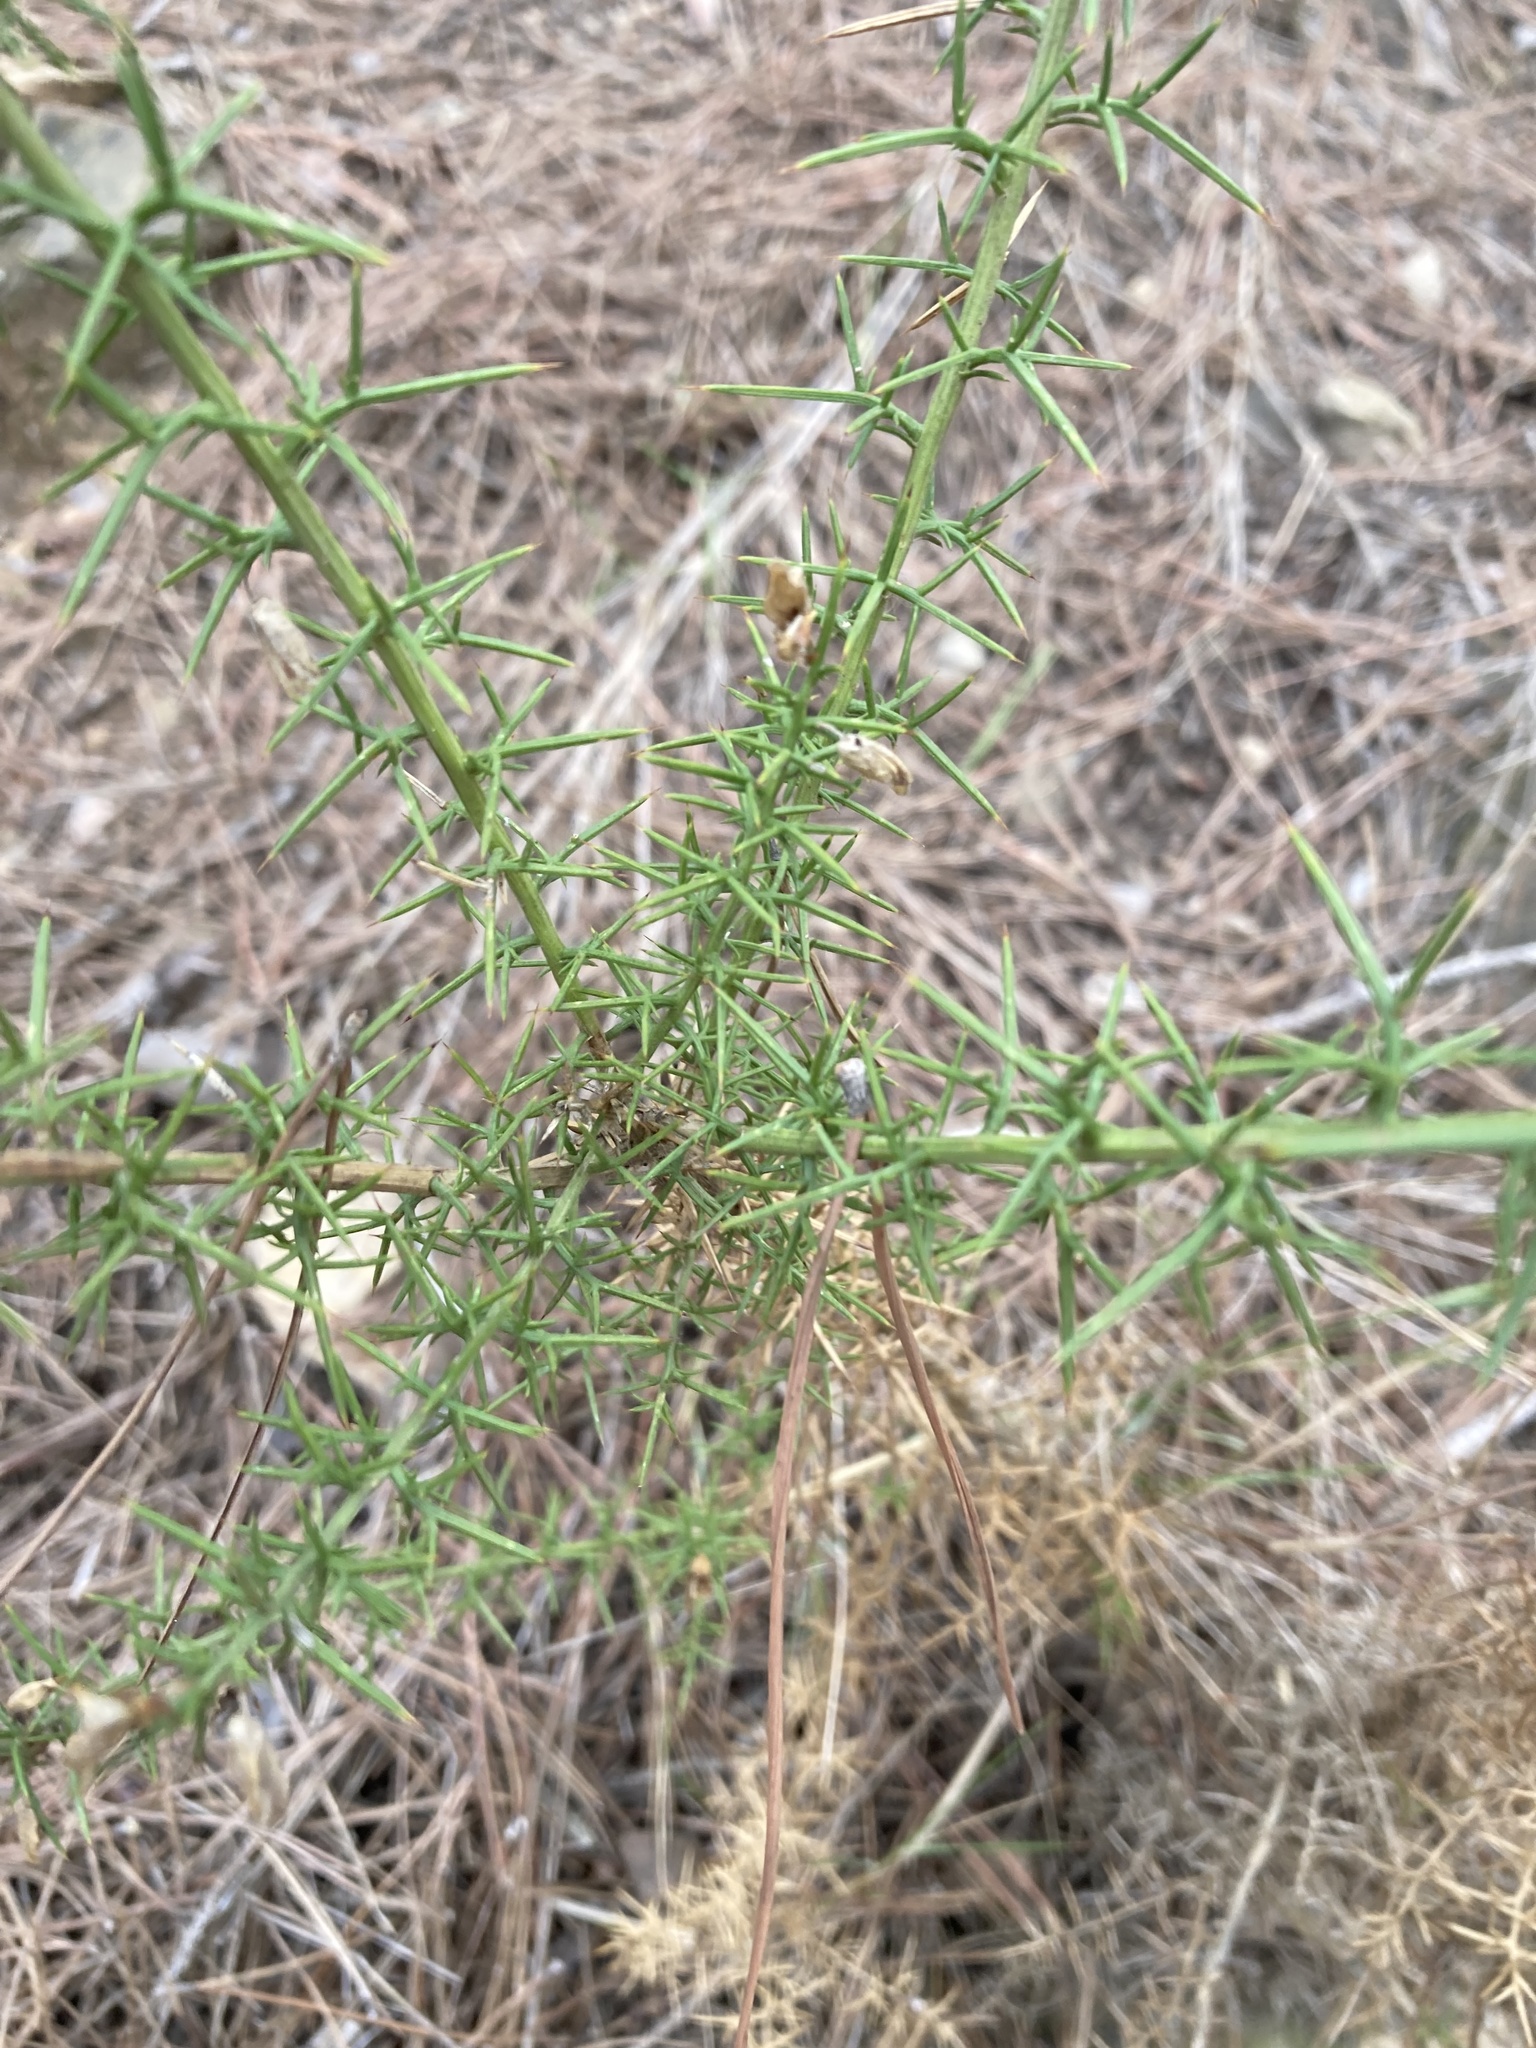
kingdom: Plantae
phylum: Tracheophyta
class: Magnoliopsida
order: Fabales
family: Fabaceae
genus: Ulex
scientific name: Ulex parviflorus
